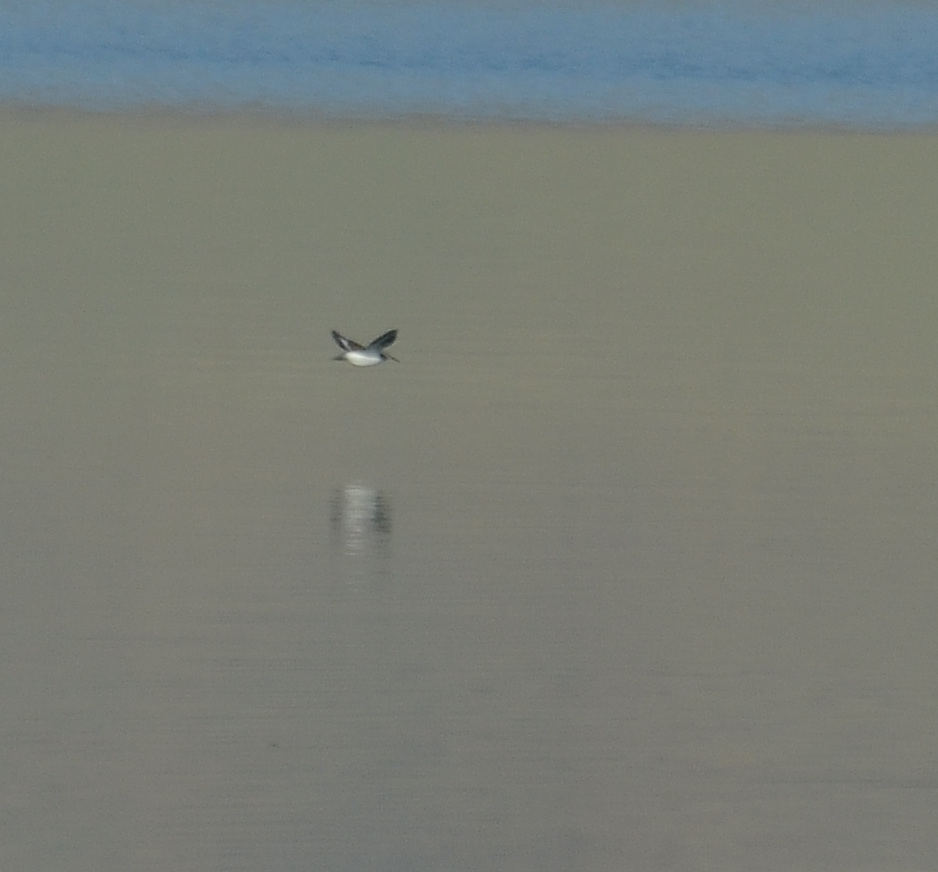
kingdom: Animalia
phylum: Chordata
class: Aves
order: Charadriiformes
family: Scolopacidae
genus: Actitis
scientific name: Actitis hypoleucos
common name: Common sandpiper
